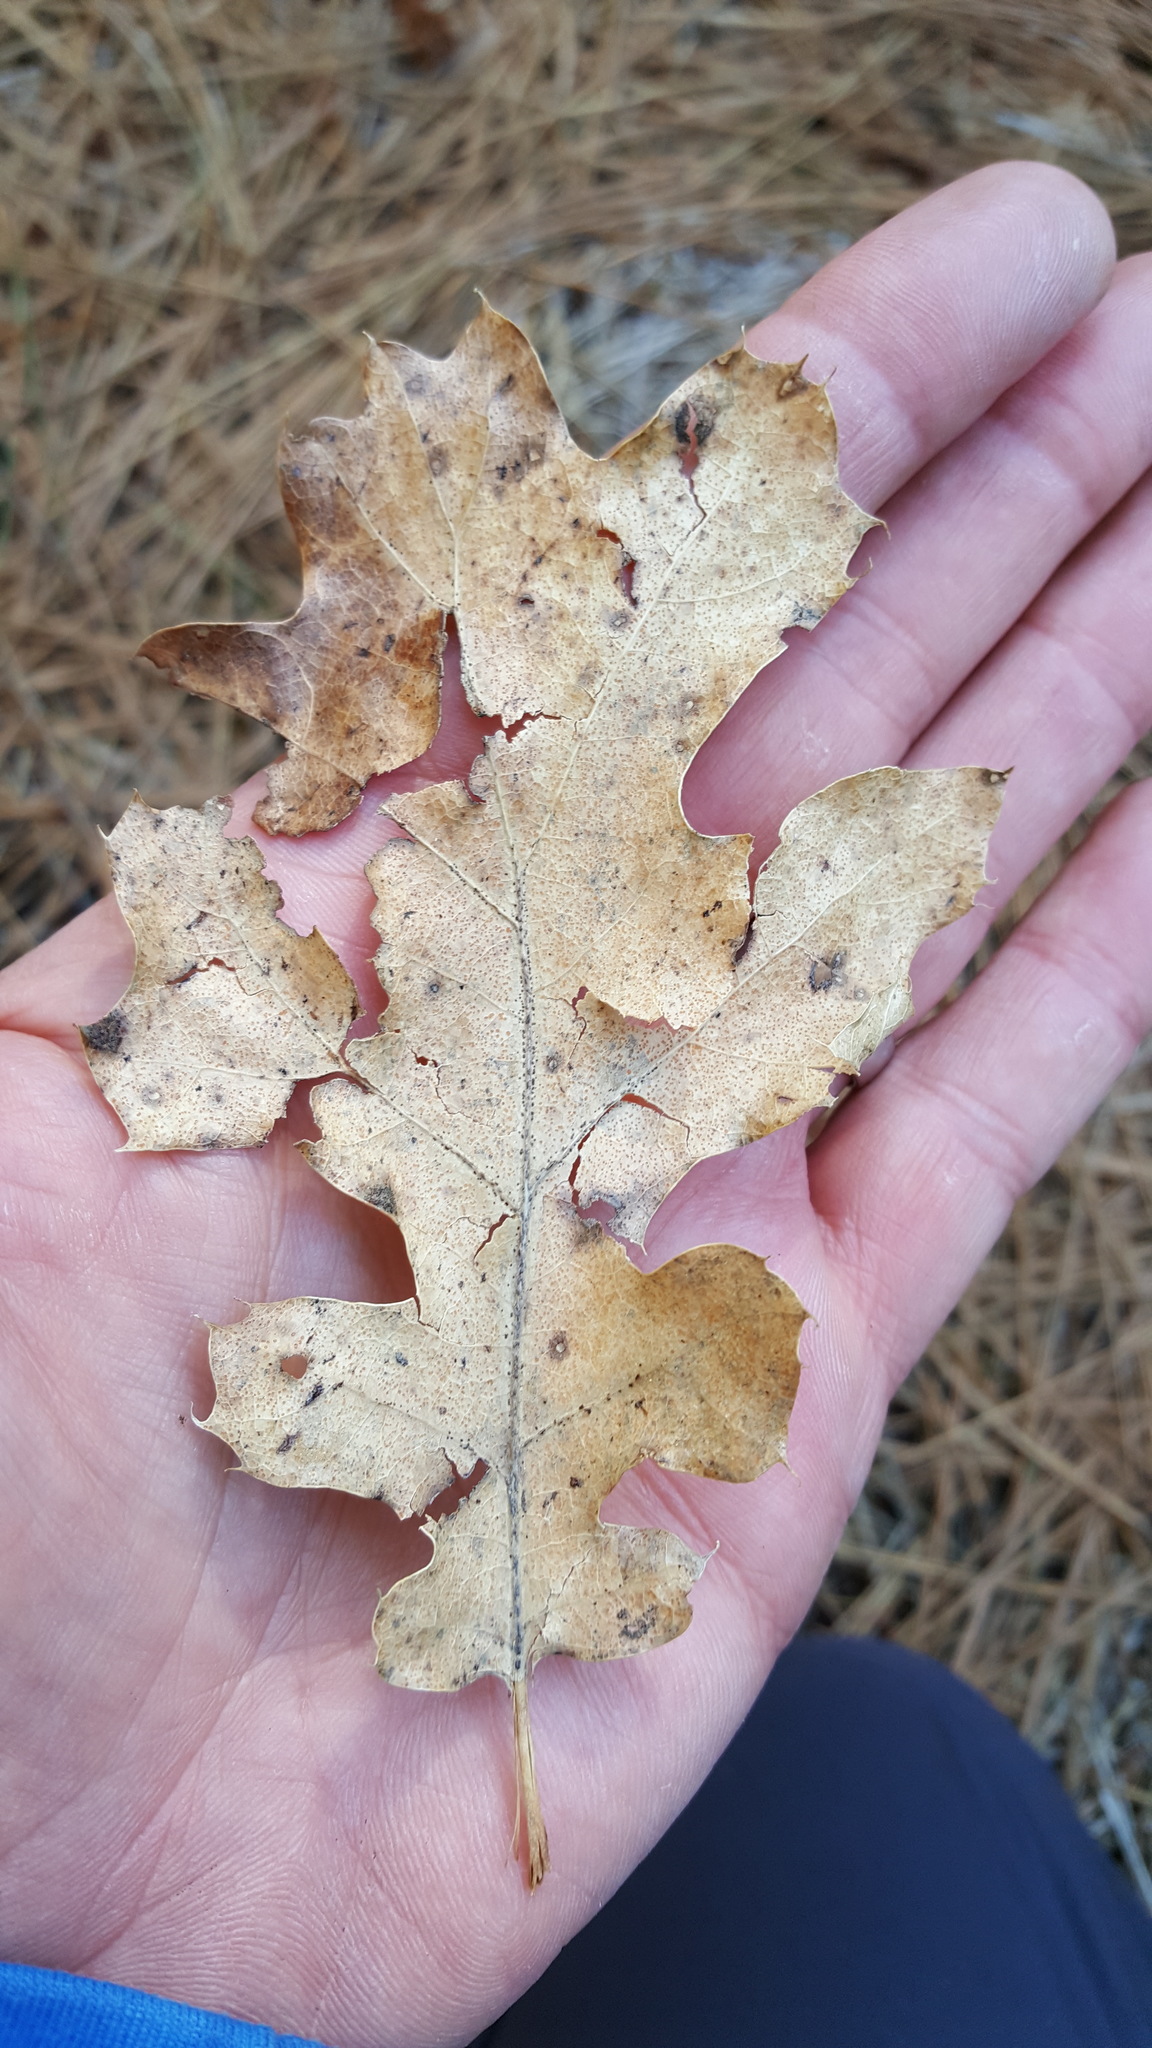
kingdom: Plantae
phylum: Tracheophyta
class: Magnoliopsida
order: Fagales
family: Fagaceae
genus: Quercus
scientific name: Quercus kelloggii
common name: California black oak
